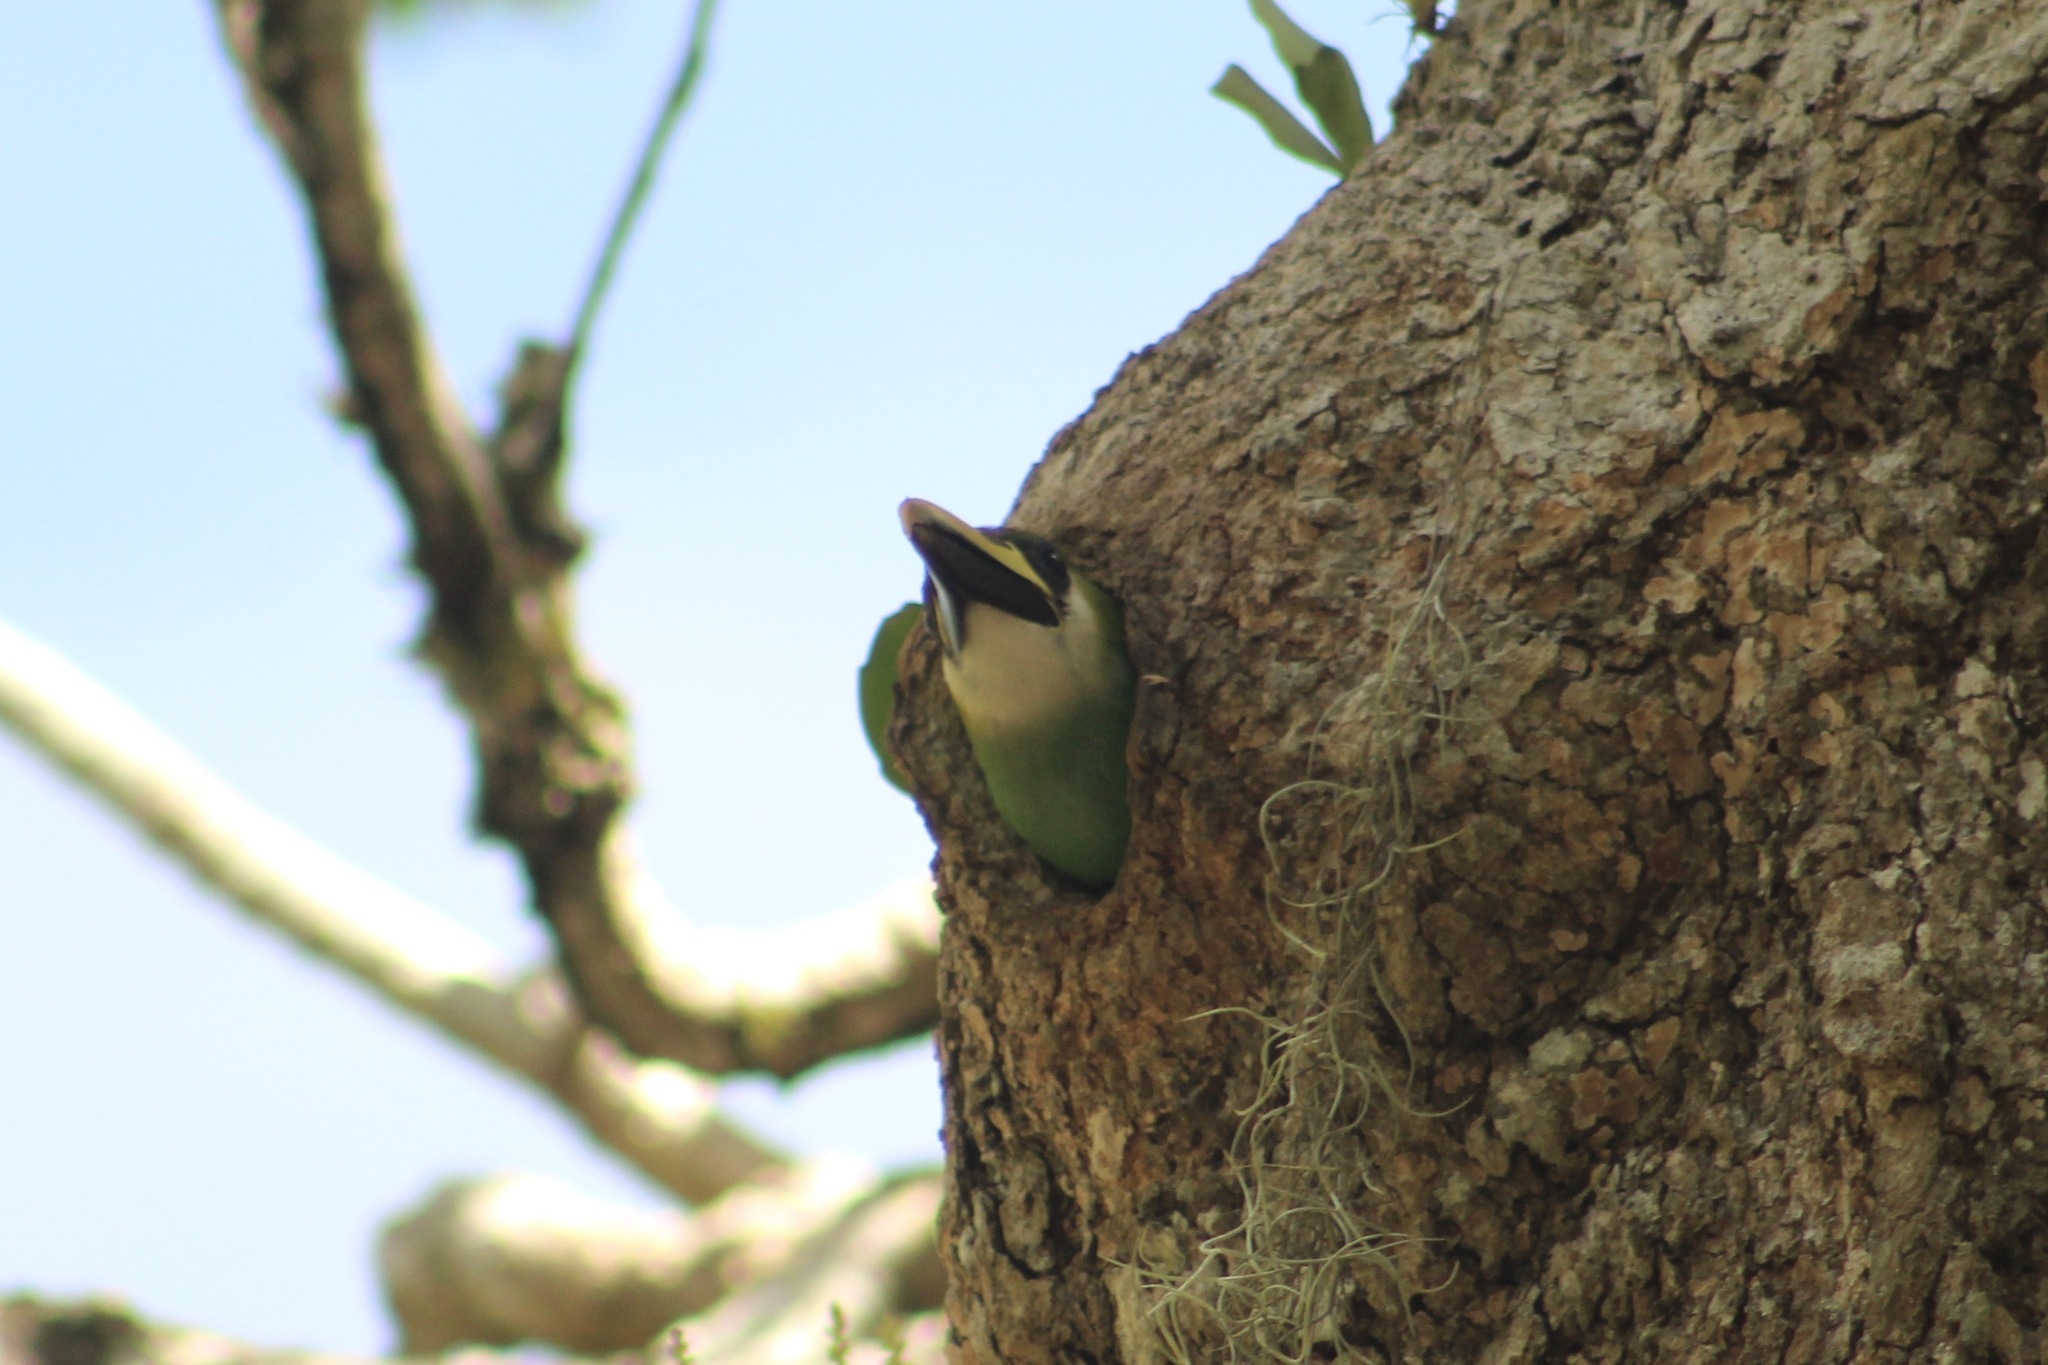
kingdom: Animalia
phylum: Chordata
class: Aves
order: Piciformes
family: Ramphastidae
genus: Aulacorhynchus
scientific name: Aulacorhynchus prasinus
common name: Emerald toucanet
